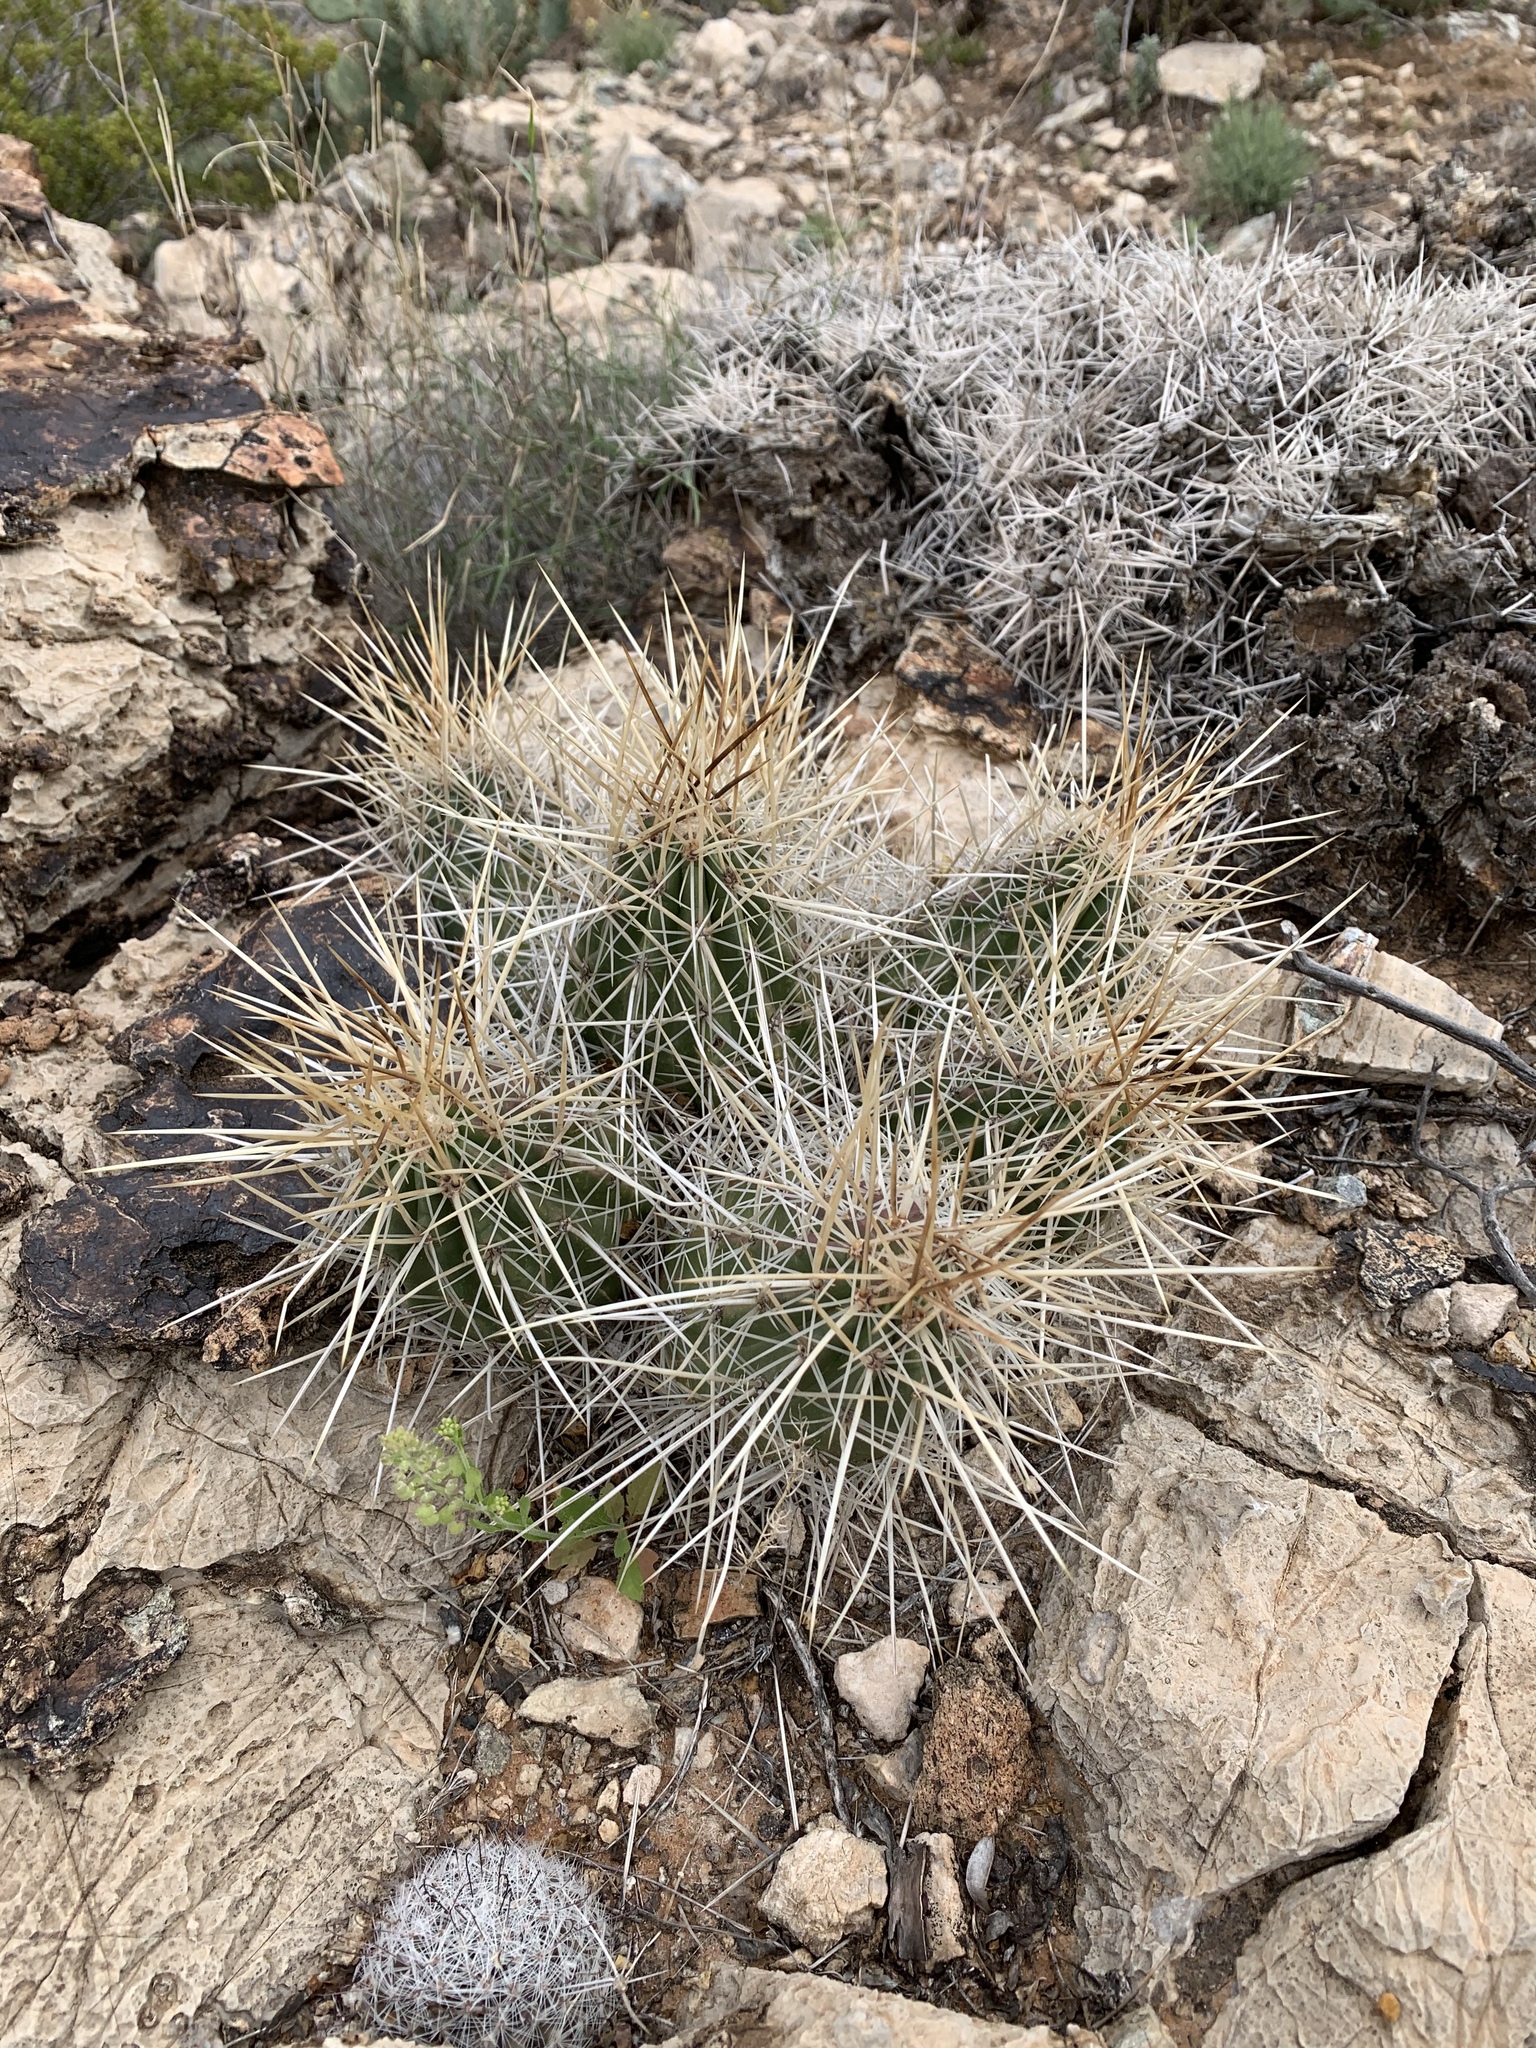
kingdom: Plantae
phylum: Tracheophyta
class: Magnoliopsida
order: Caryophyllales
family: Cactaceae
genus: Echinocereus
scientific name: Echinocereus stramineus
